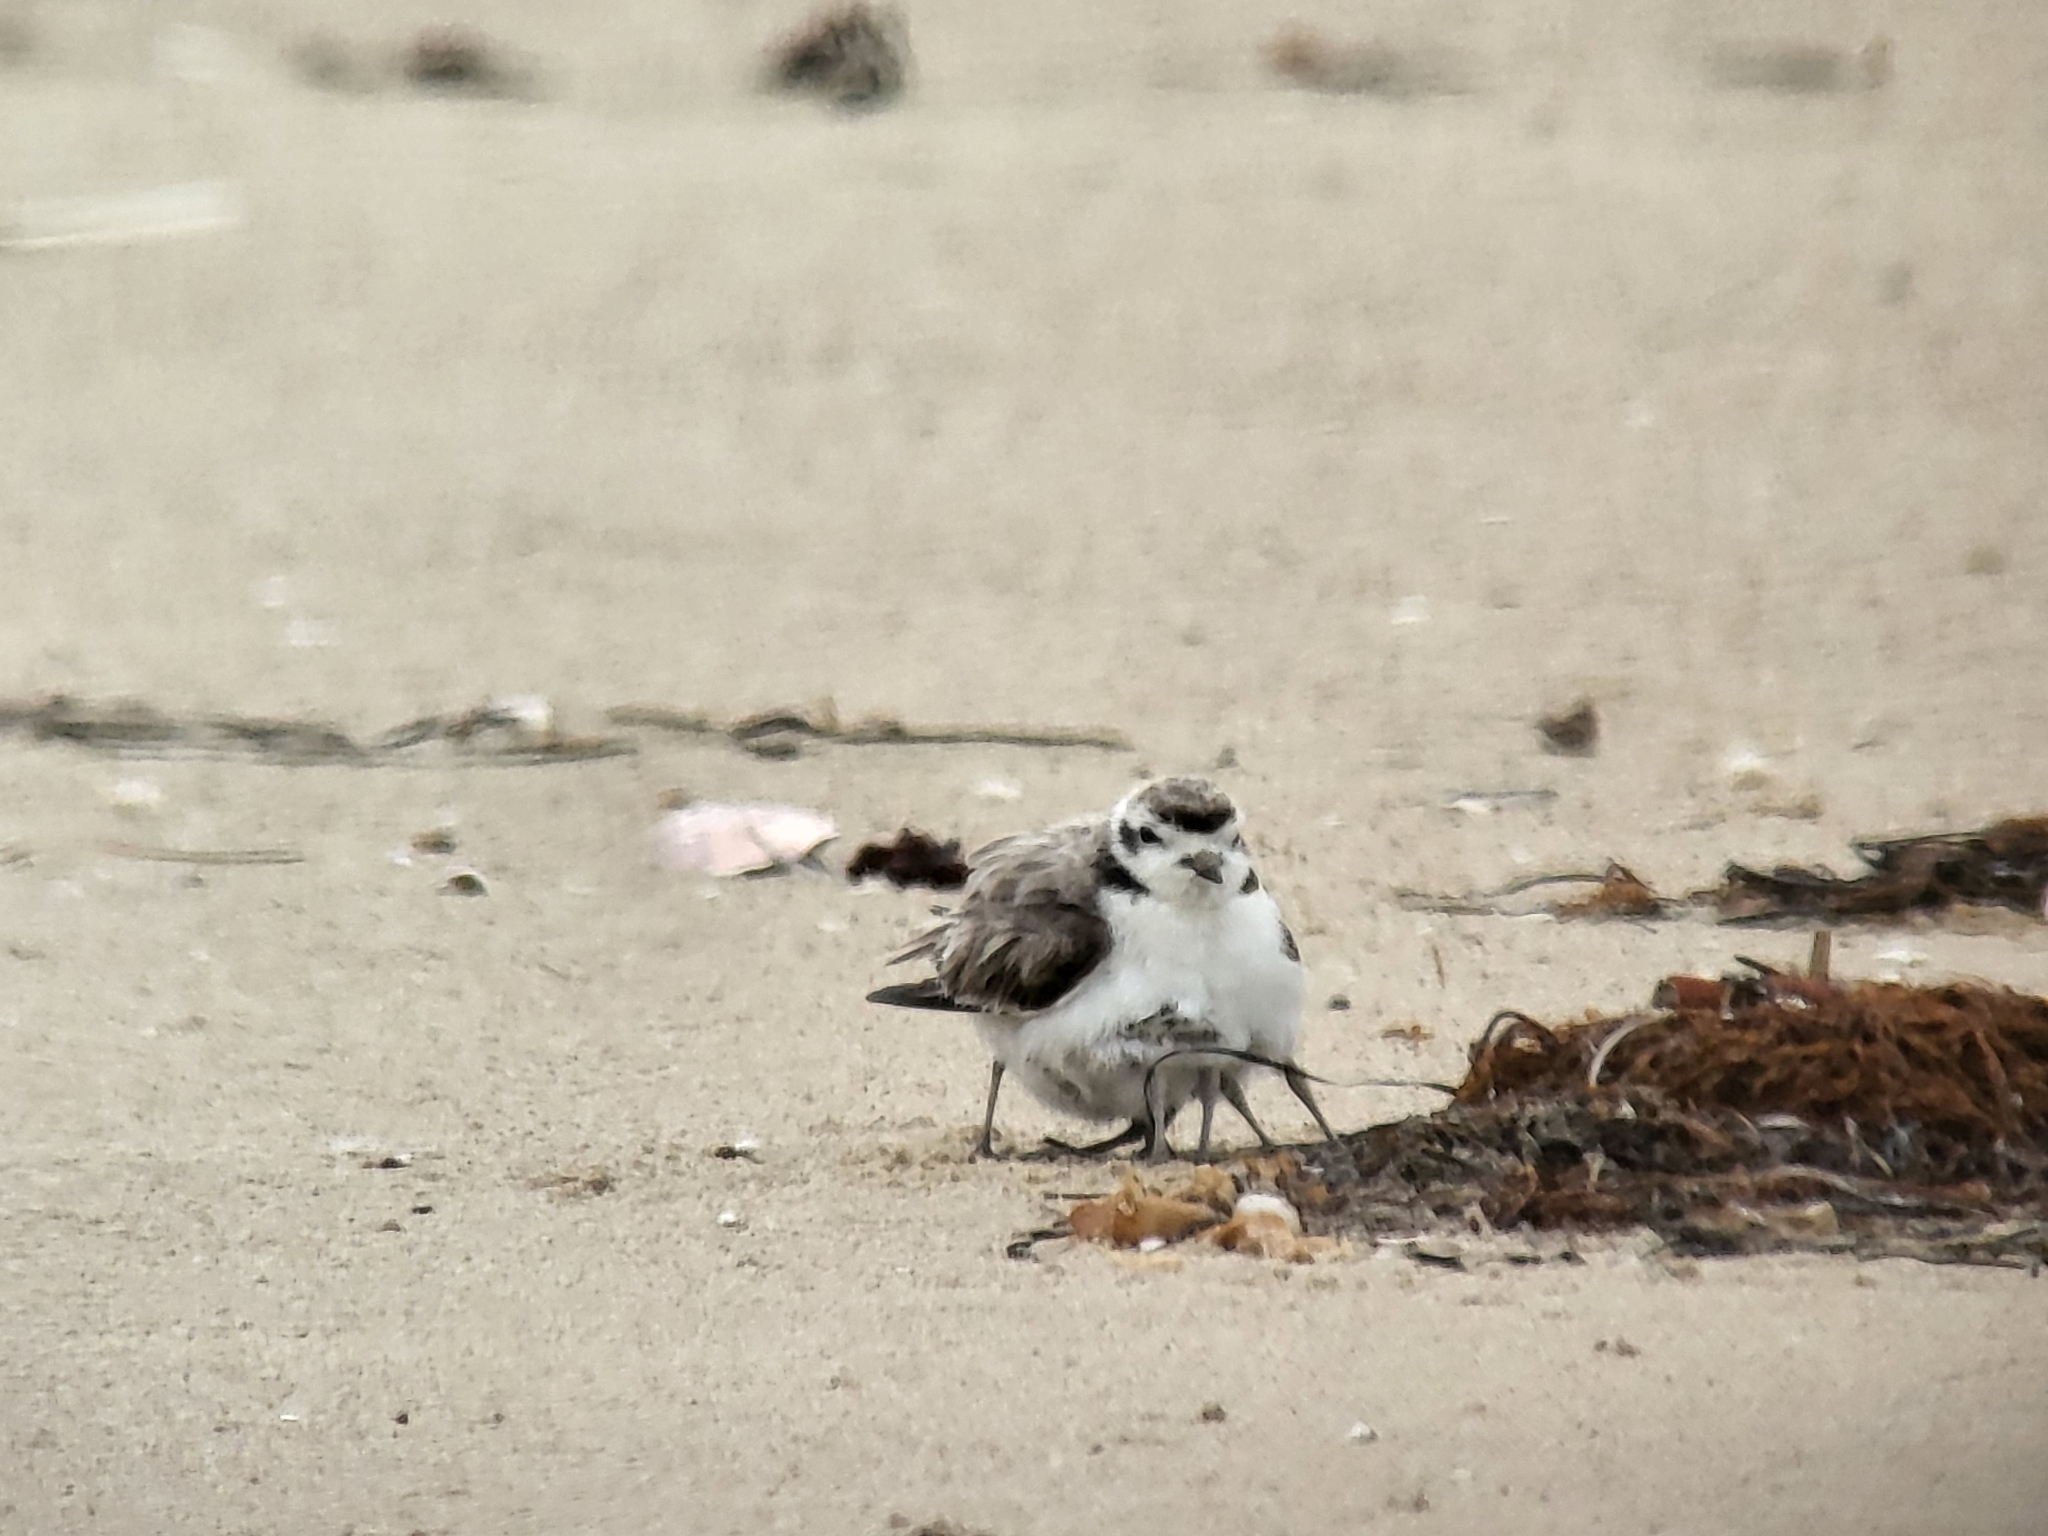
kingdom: Animalia
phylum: Chordata
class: Aves
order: Charadriiformes
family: Charadriidae
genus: Anarhynchus
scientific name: Anarhynchus
